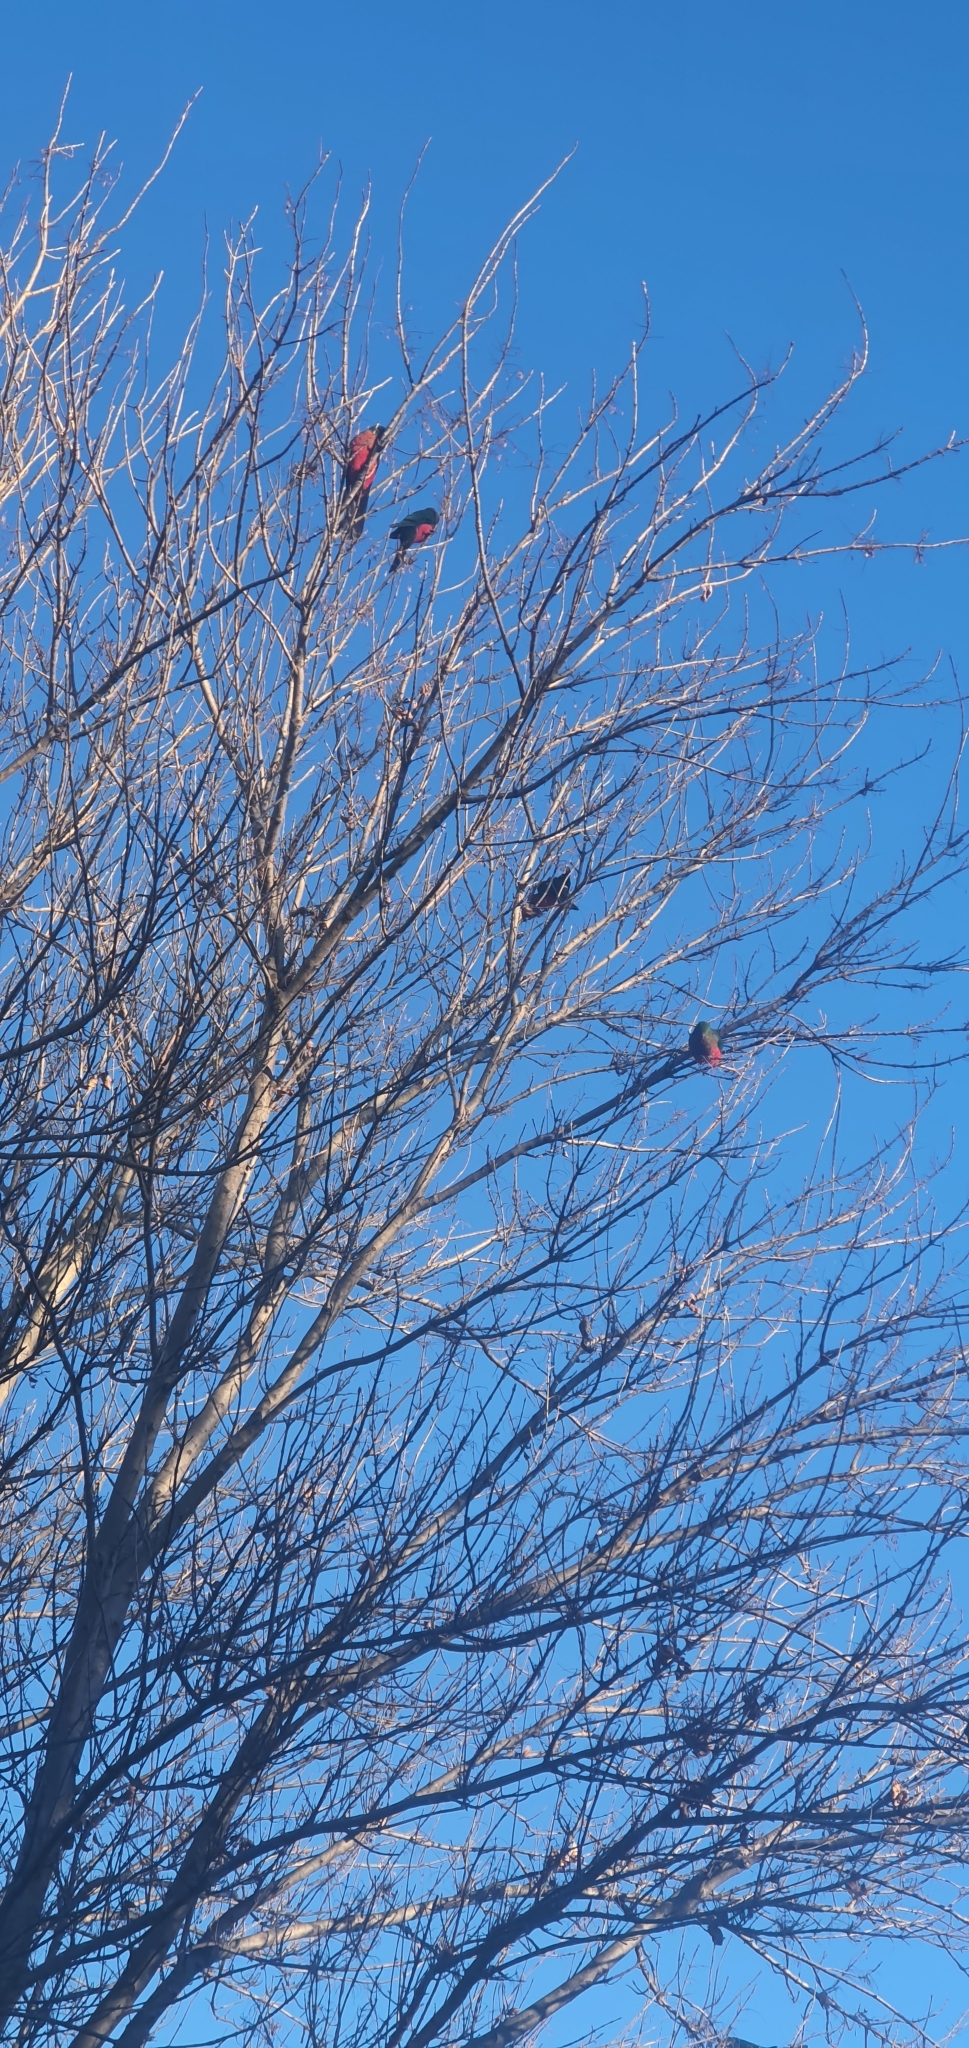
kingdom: Animalia
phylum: Chordata
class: Aves
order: Psittaciformes
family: Psittacidae
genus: Alisterus
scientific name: Alisterus scapularis
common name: Australian king parrot
